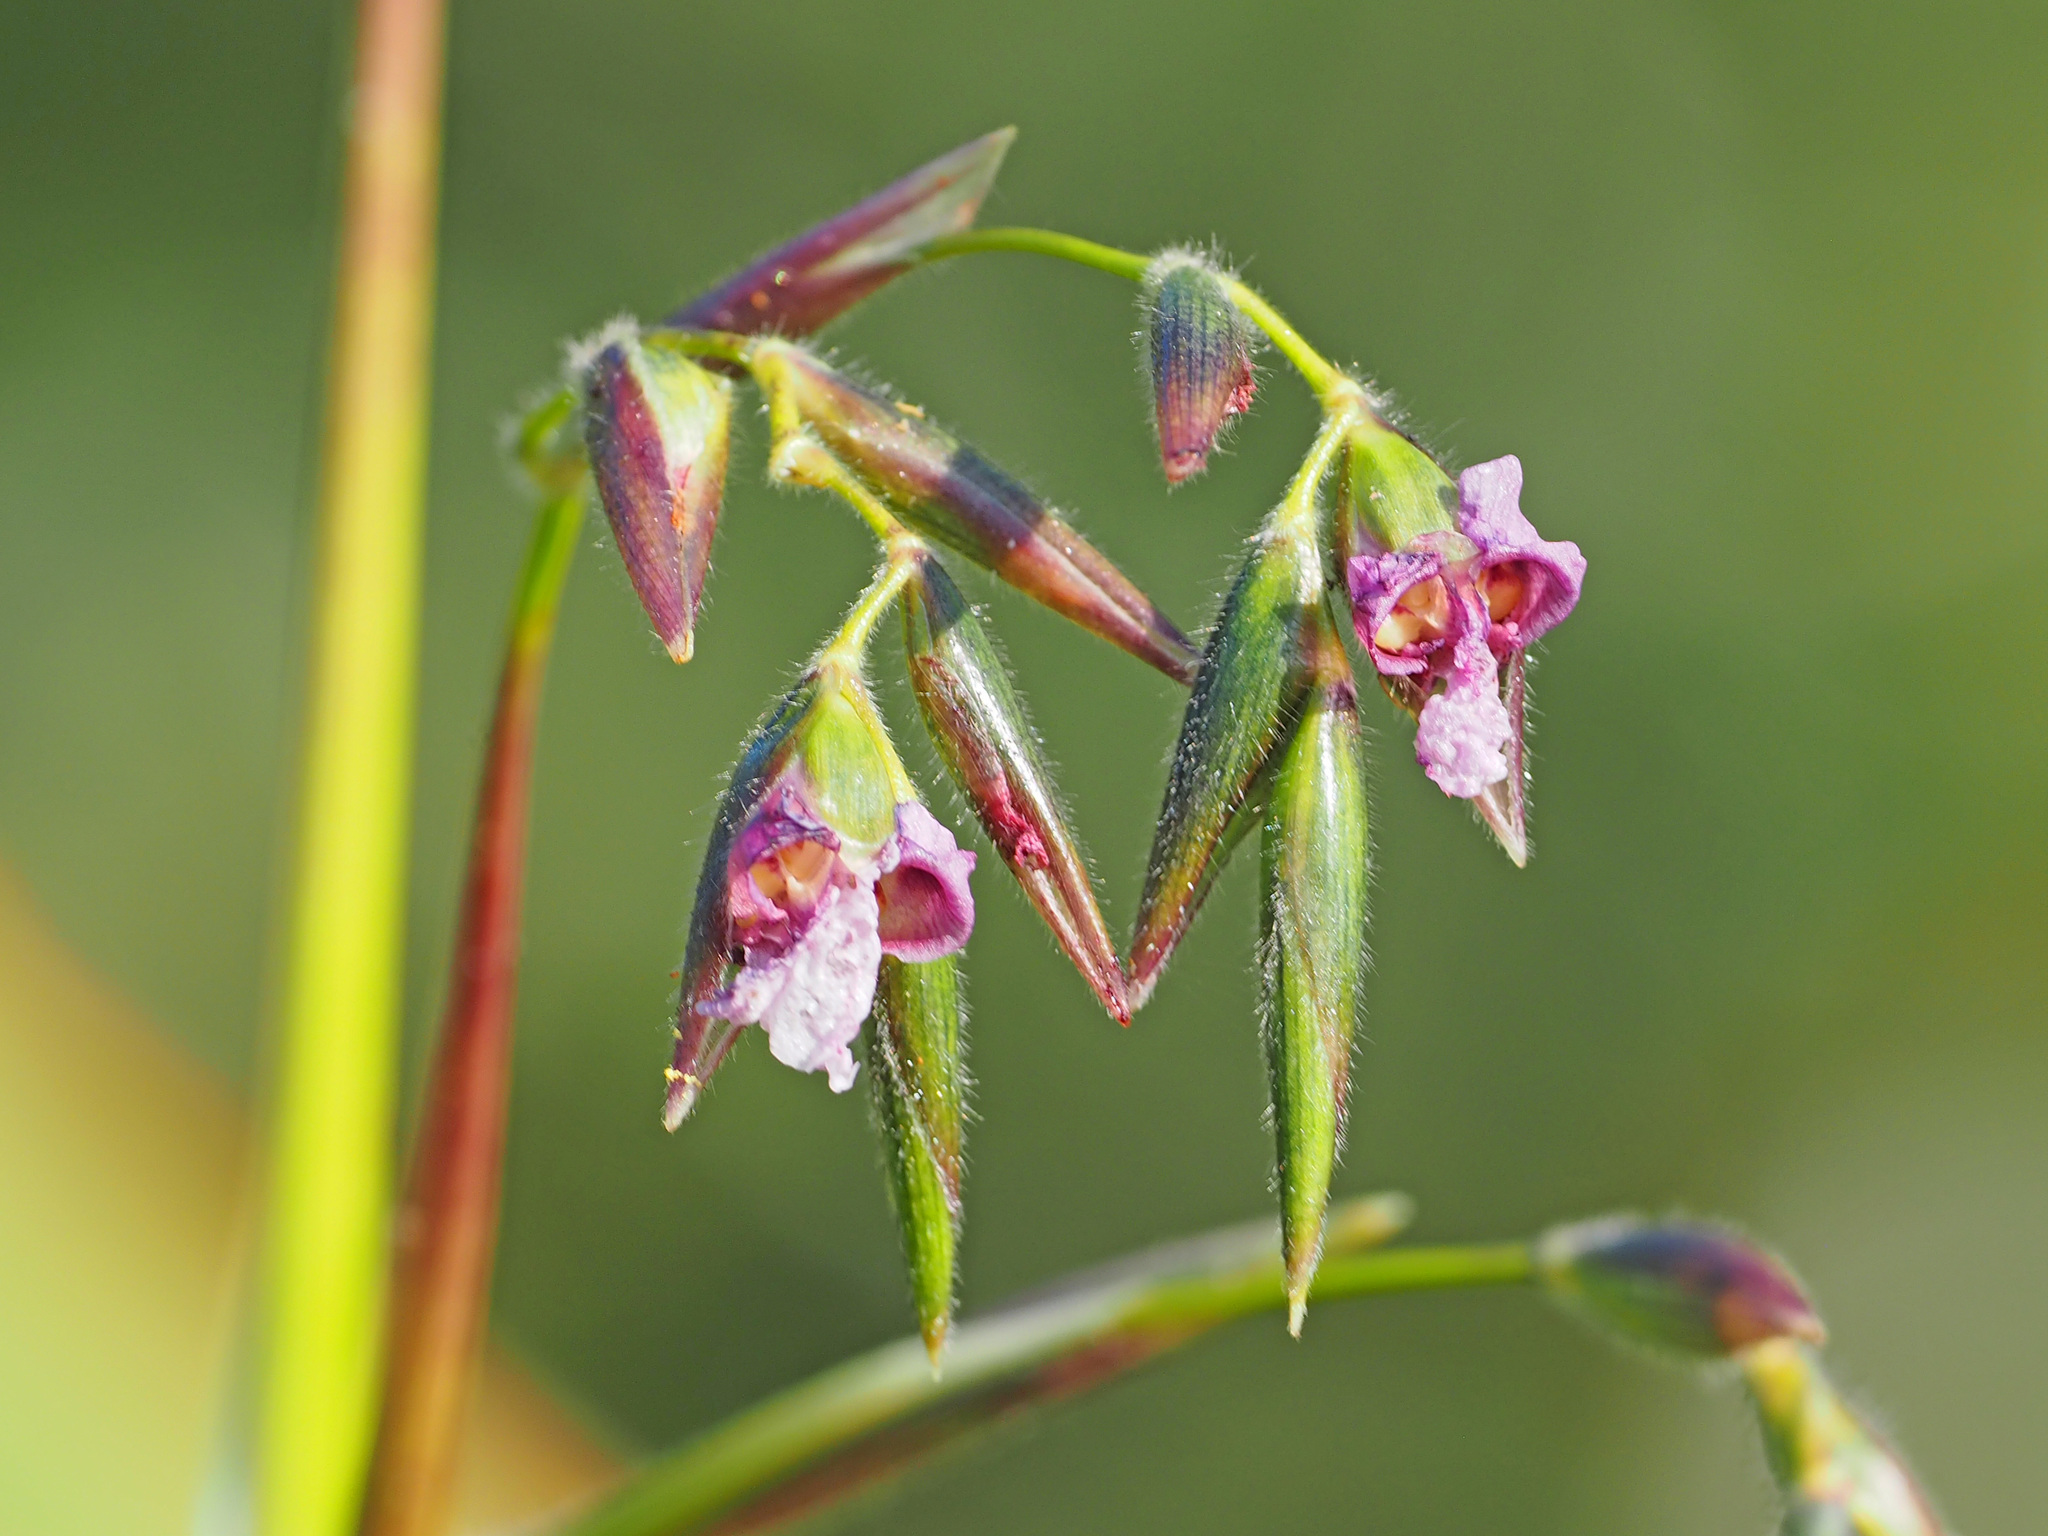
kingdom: Plantae
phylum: Tracheophyta
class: Liliopsida
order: Zingiberales
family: Marantaceae
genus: Thalia
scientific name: Thalia geniculata
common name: Arrowroot
